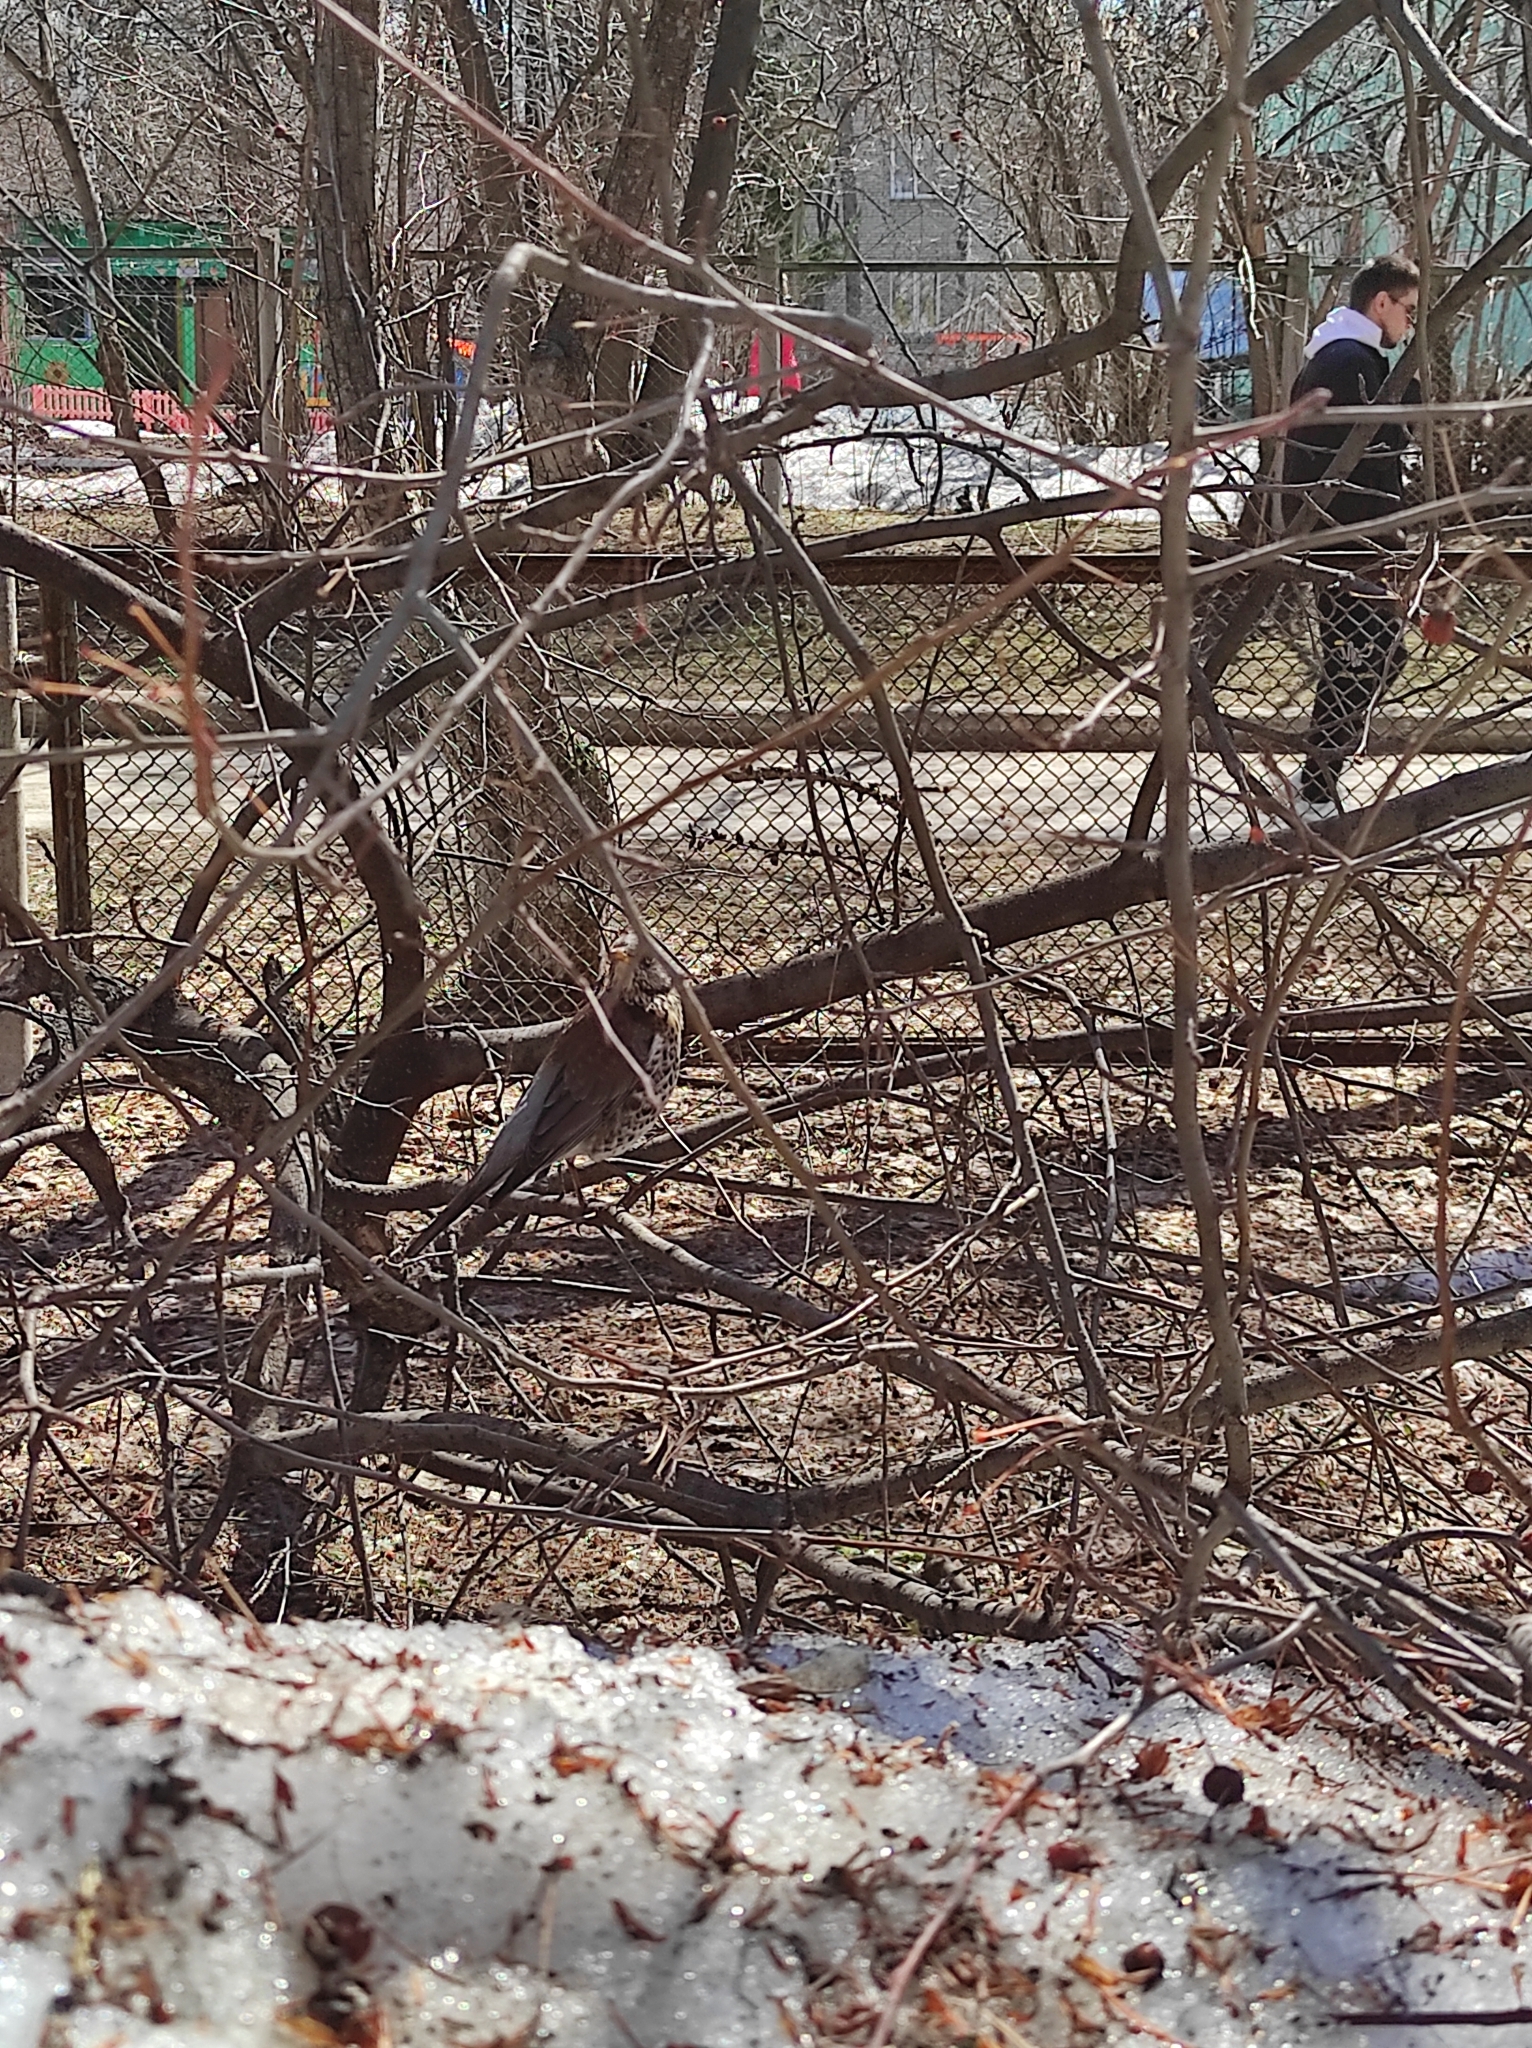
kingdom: Animalia
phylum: Chordata
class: Aves
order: Passeriformes
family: Turdidae
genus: Turdus
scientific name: Turdus pilaris
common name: Fieldfare
